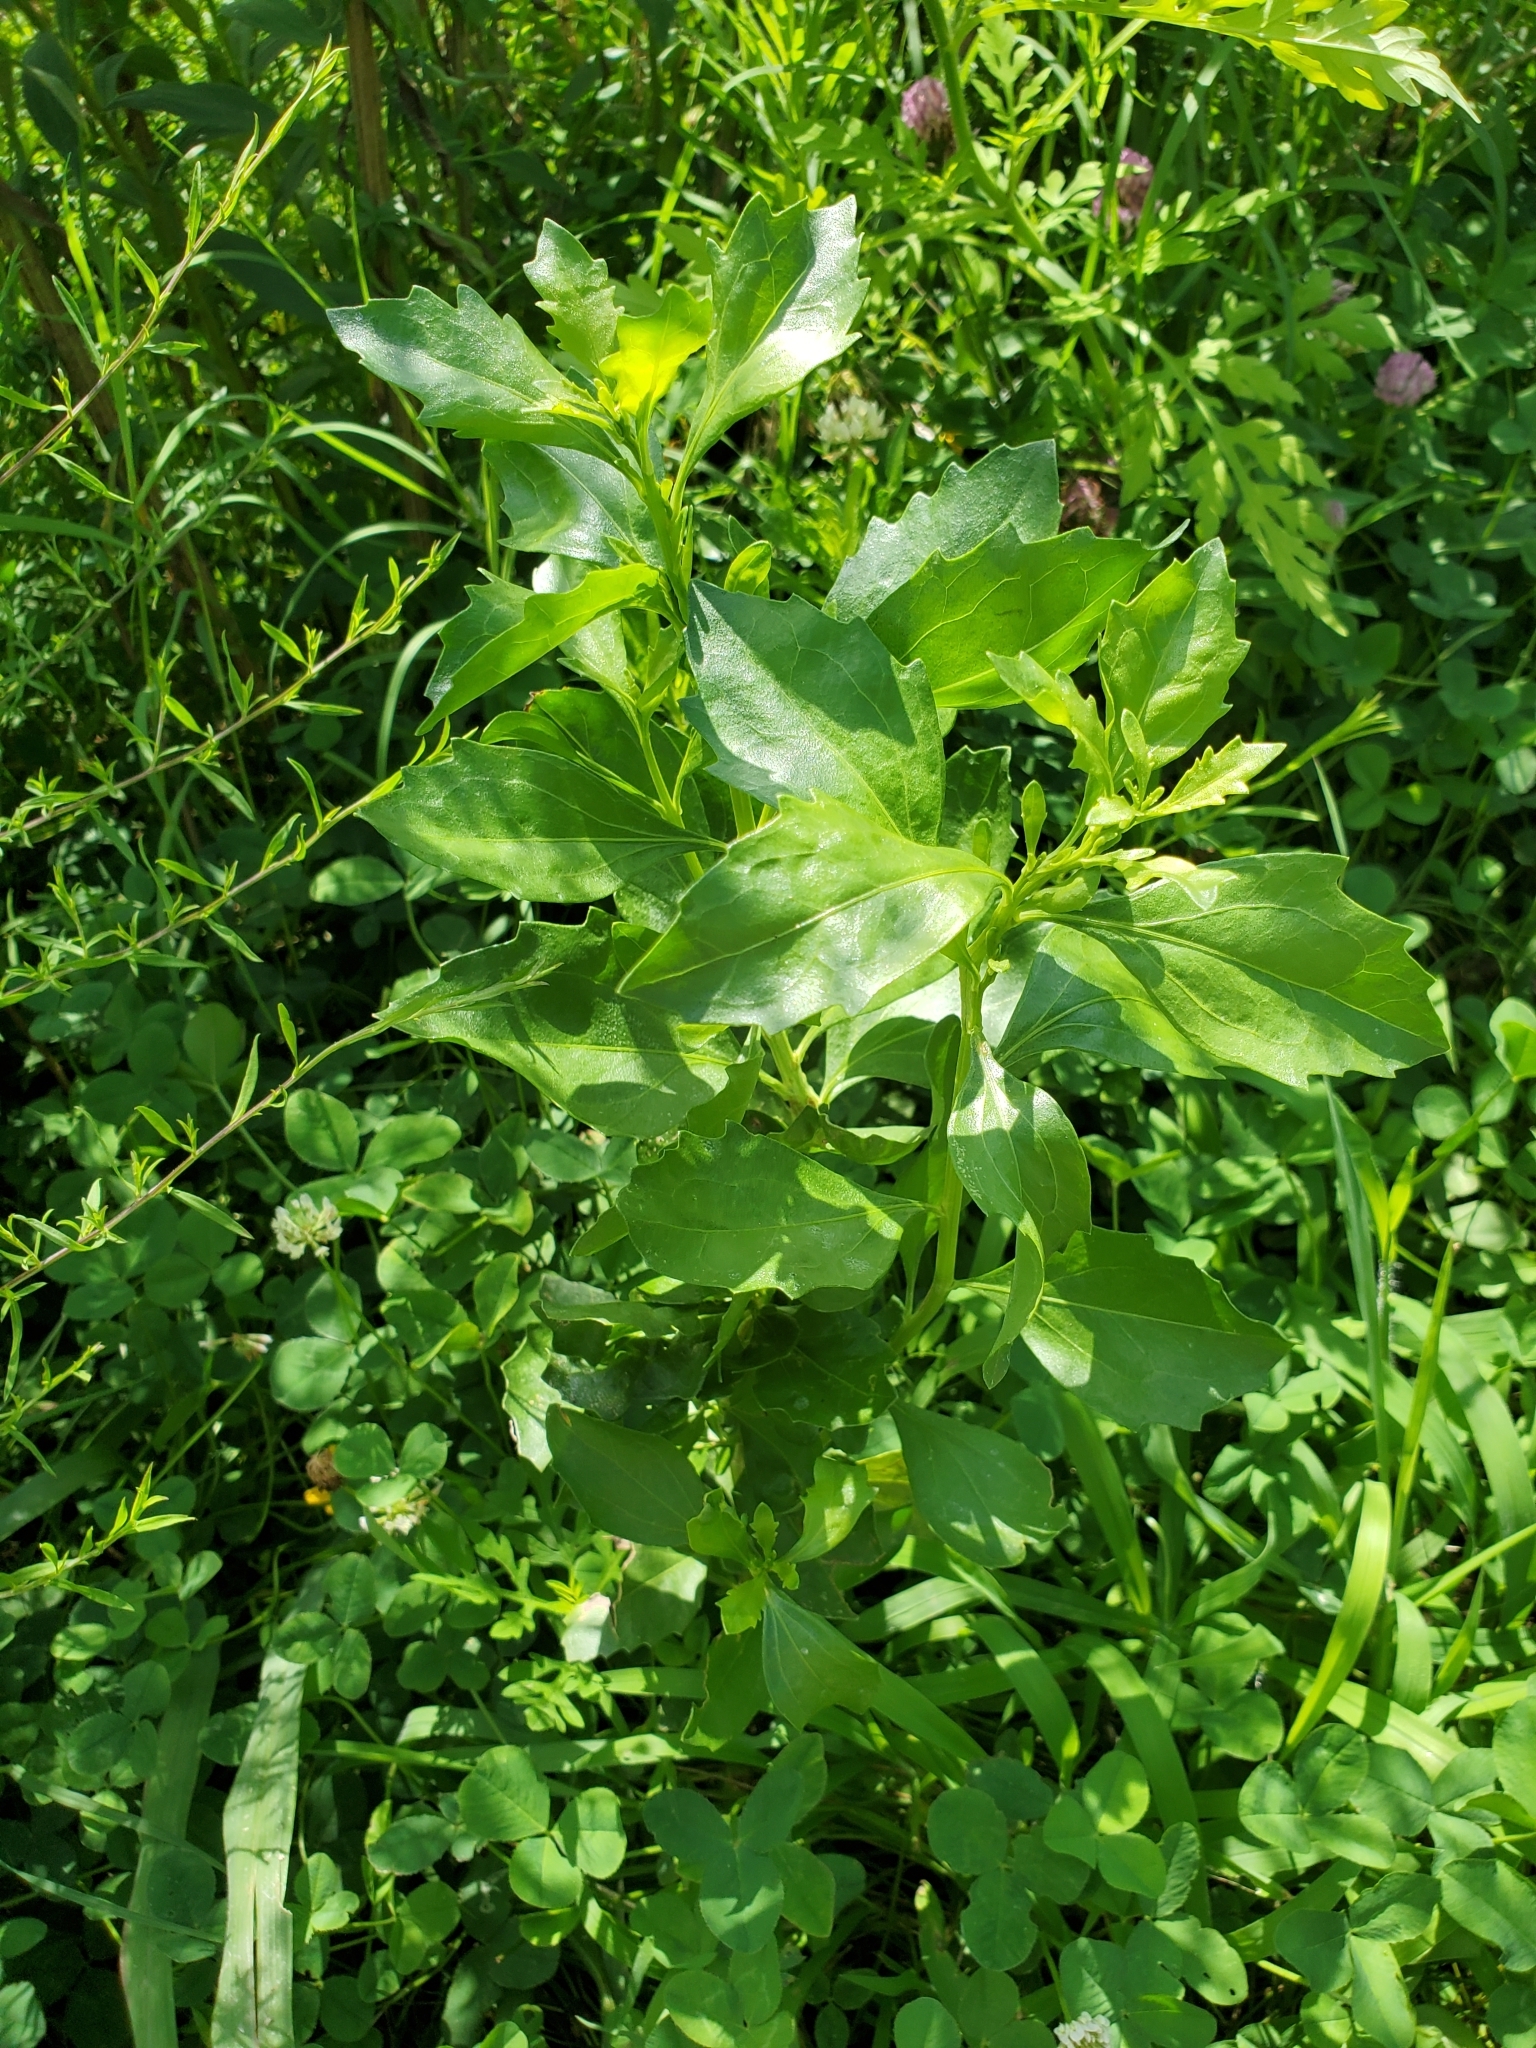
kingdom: Plantae
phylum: Tracheophyta
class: Magnoliopsida
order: Asterales
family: Asteraceae
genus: Baccharis
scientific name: Baccharis halimifolia
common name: Eastern baccharis
